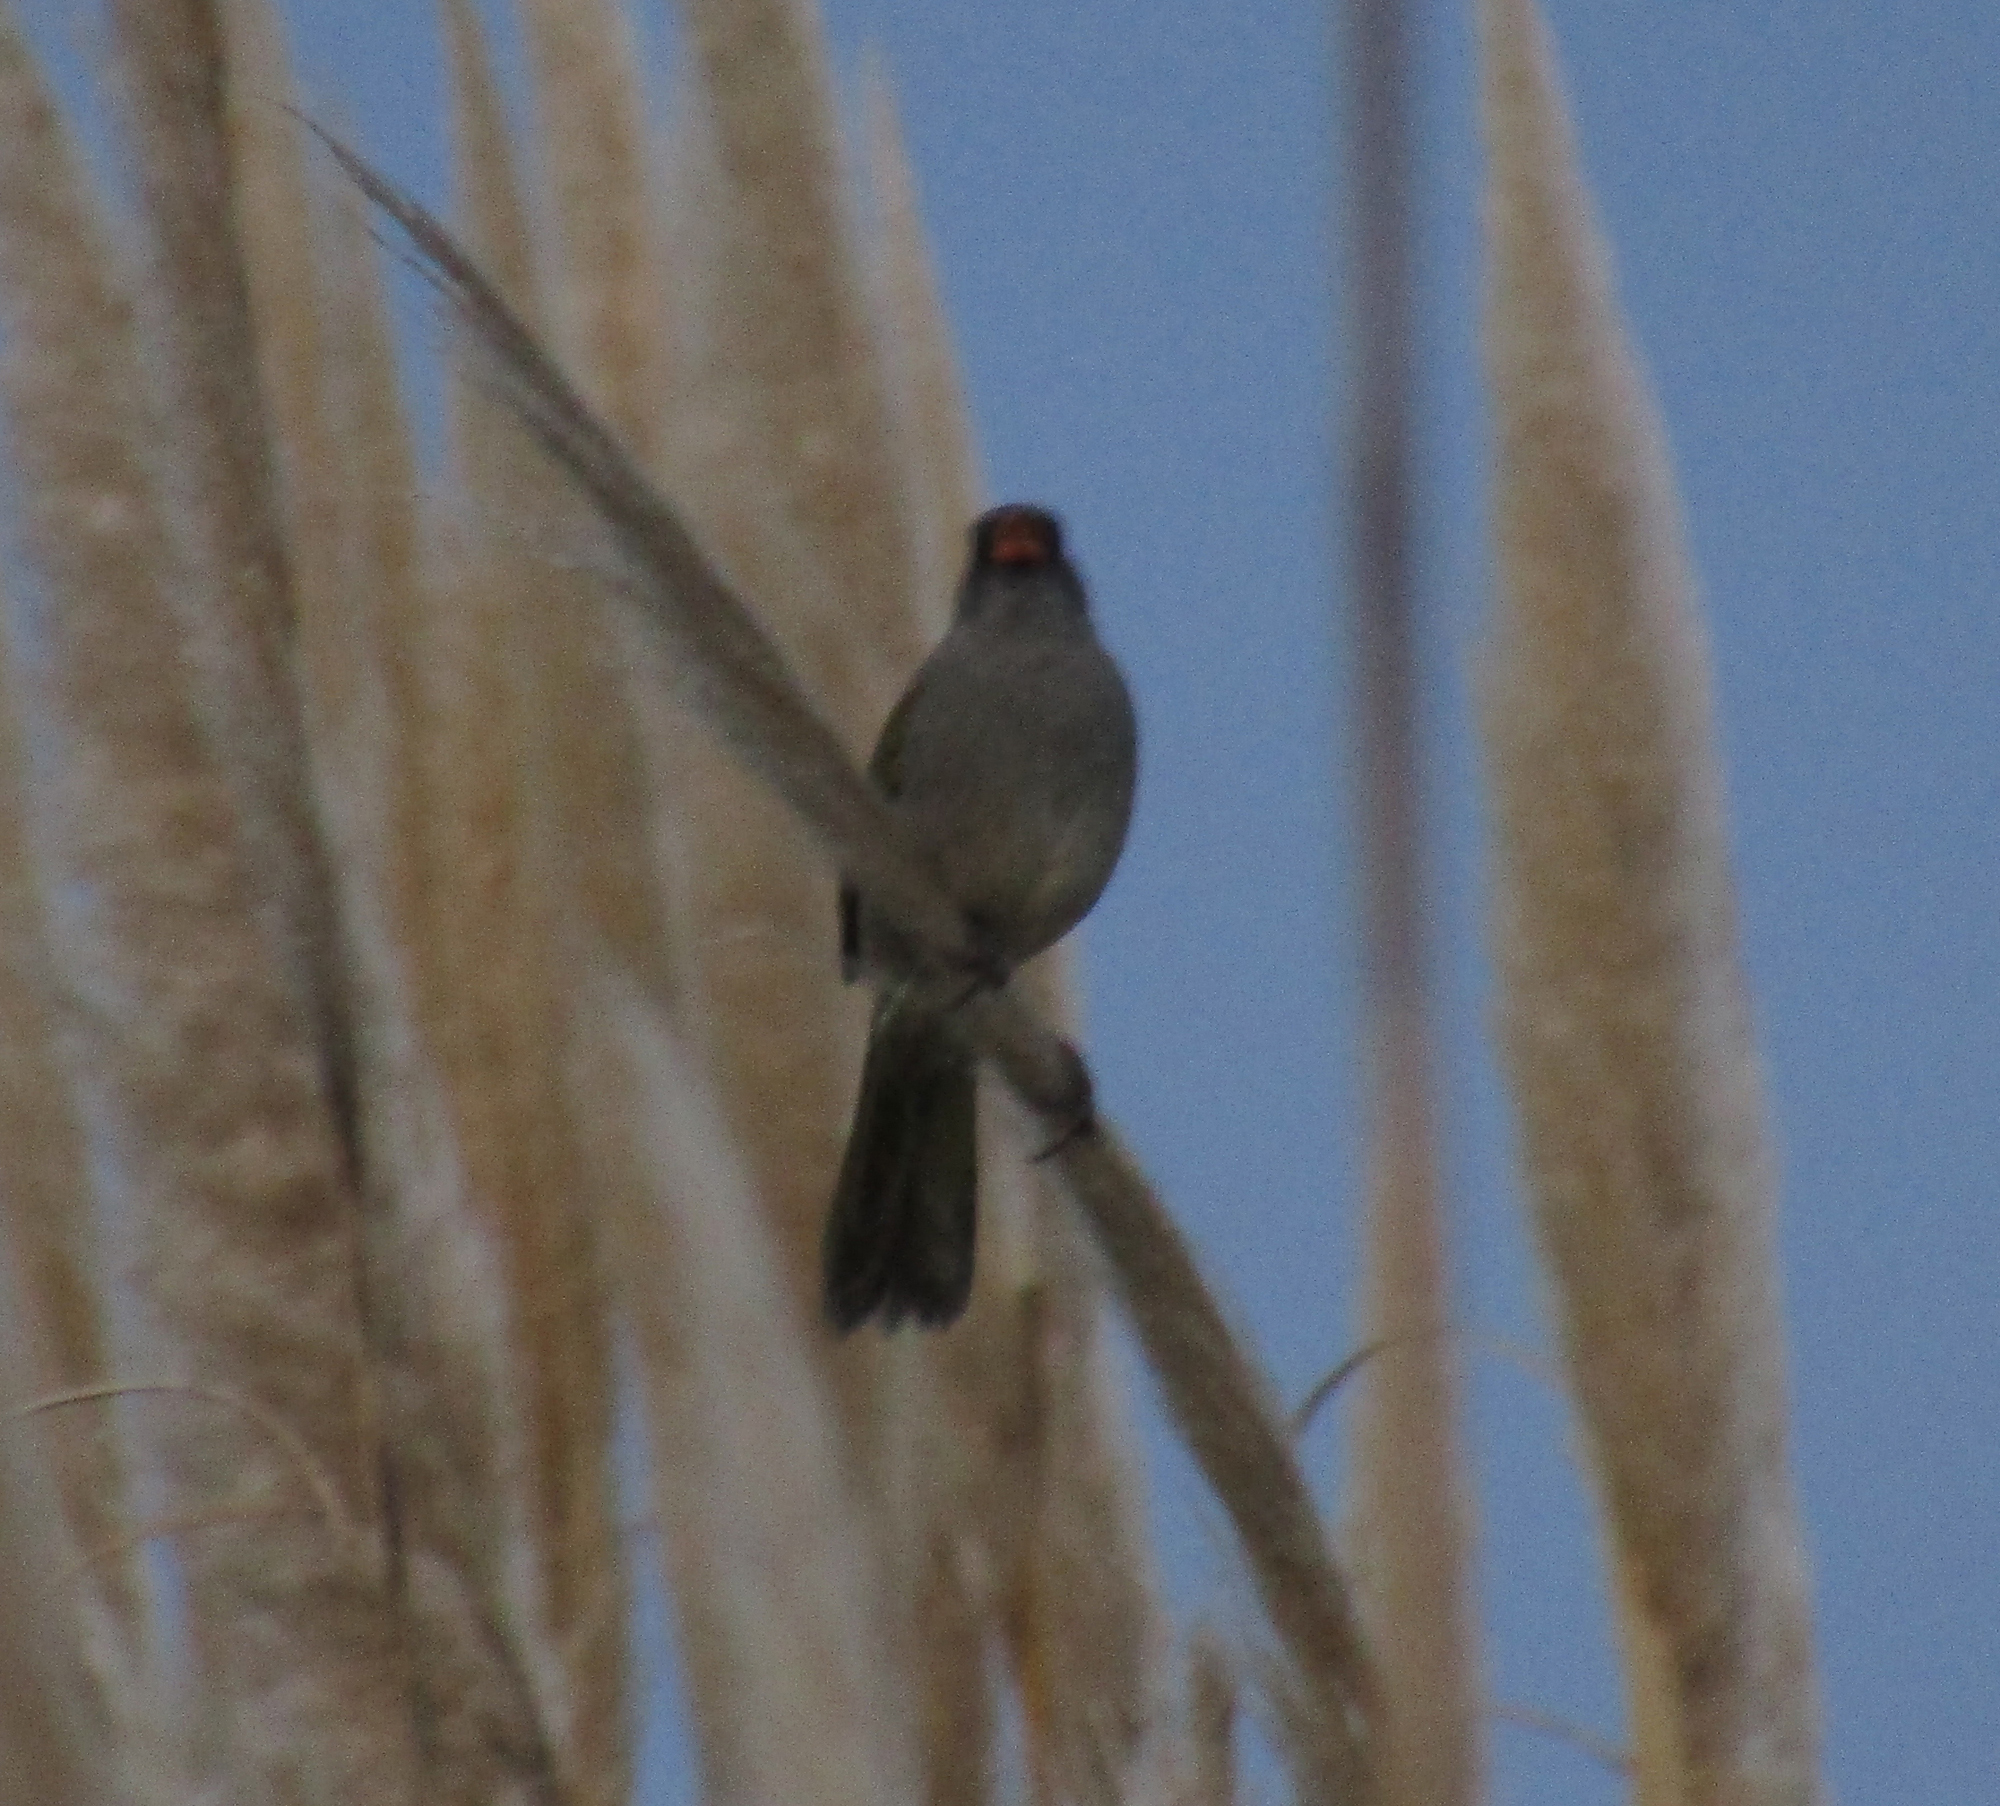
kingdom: Animalia
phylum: Chordata
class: Aves
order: Passeriformes
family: Thraupidae
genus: Embernagra
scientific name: Embernagra platensis
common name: Pampa finch
